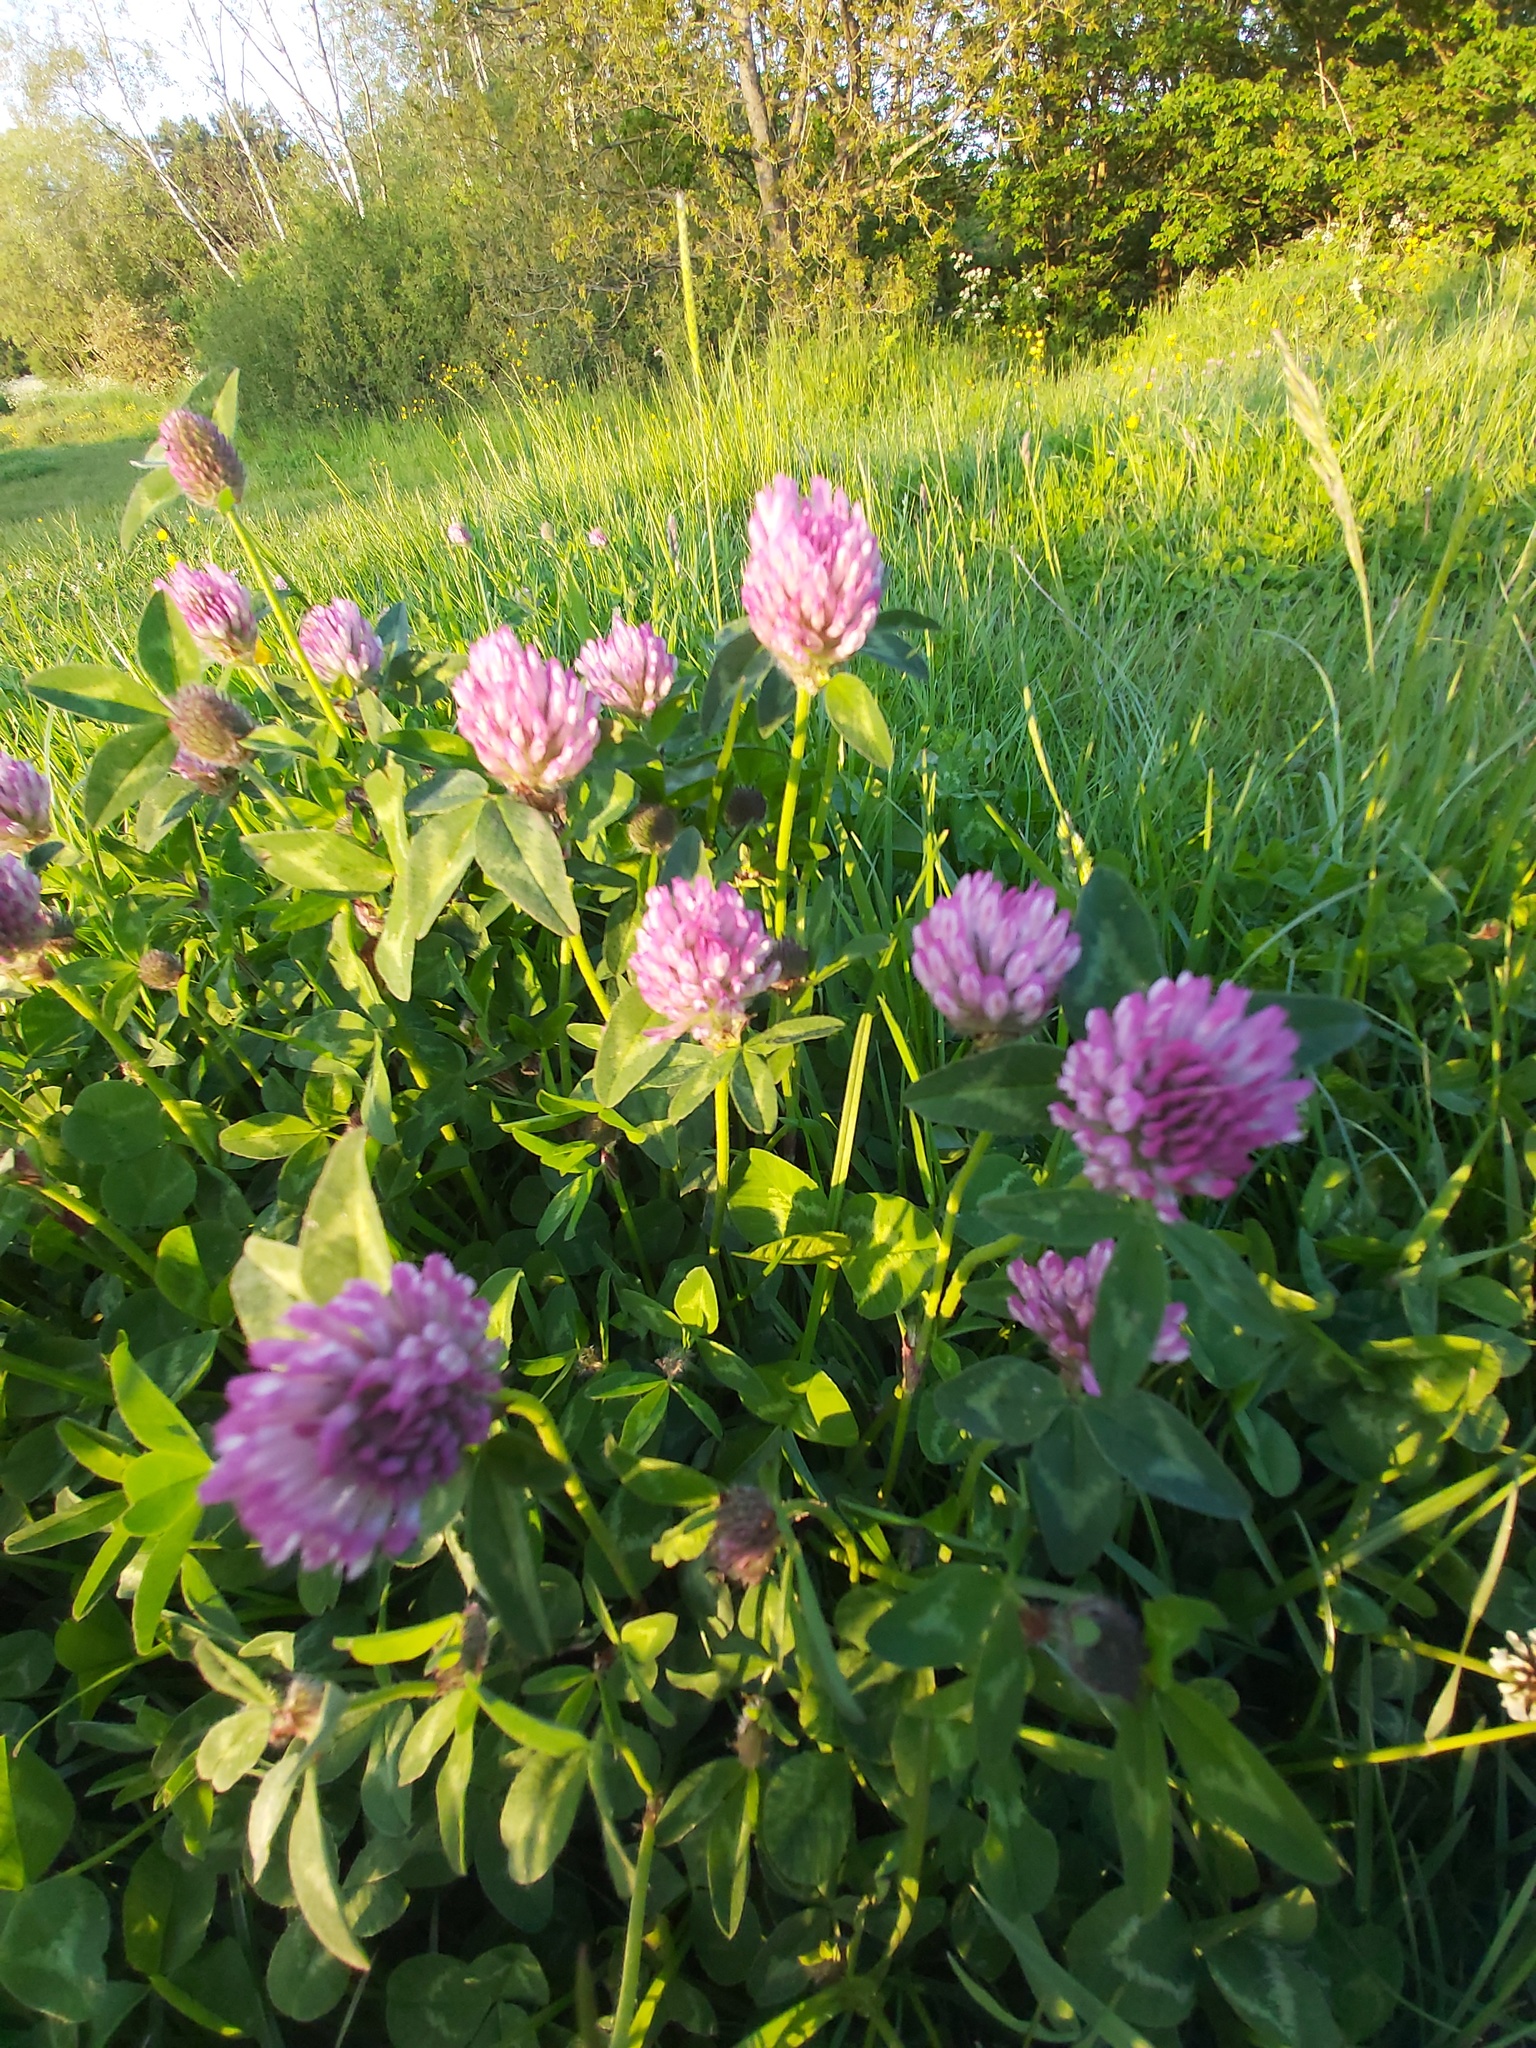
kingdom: Plantae
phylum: Tracheophyta
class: Magnoliopsida
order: Fabales
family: Fabaceae
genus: Trifolium
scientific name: Trifolium pratense
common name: Red clover
